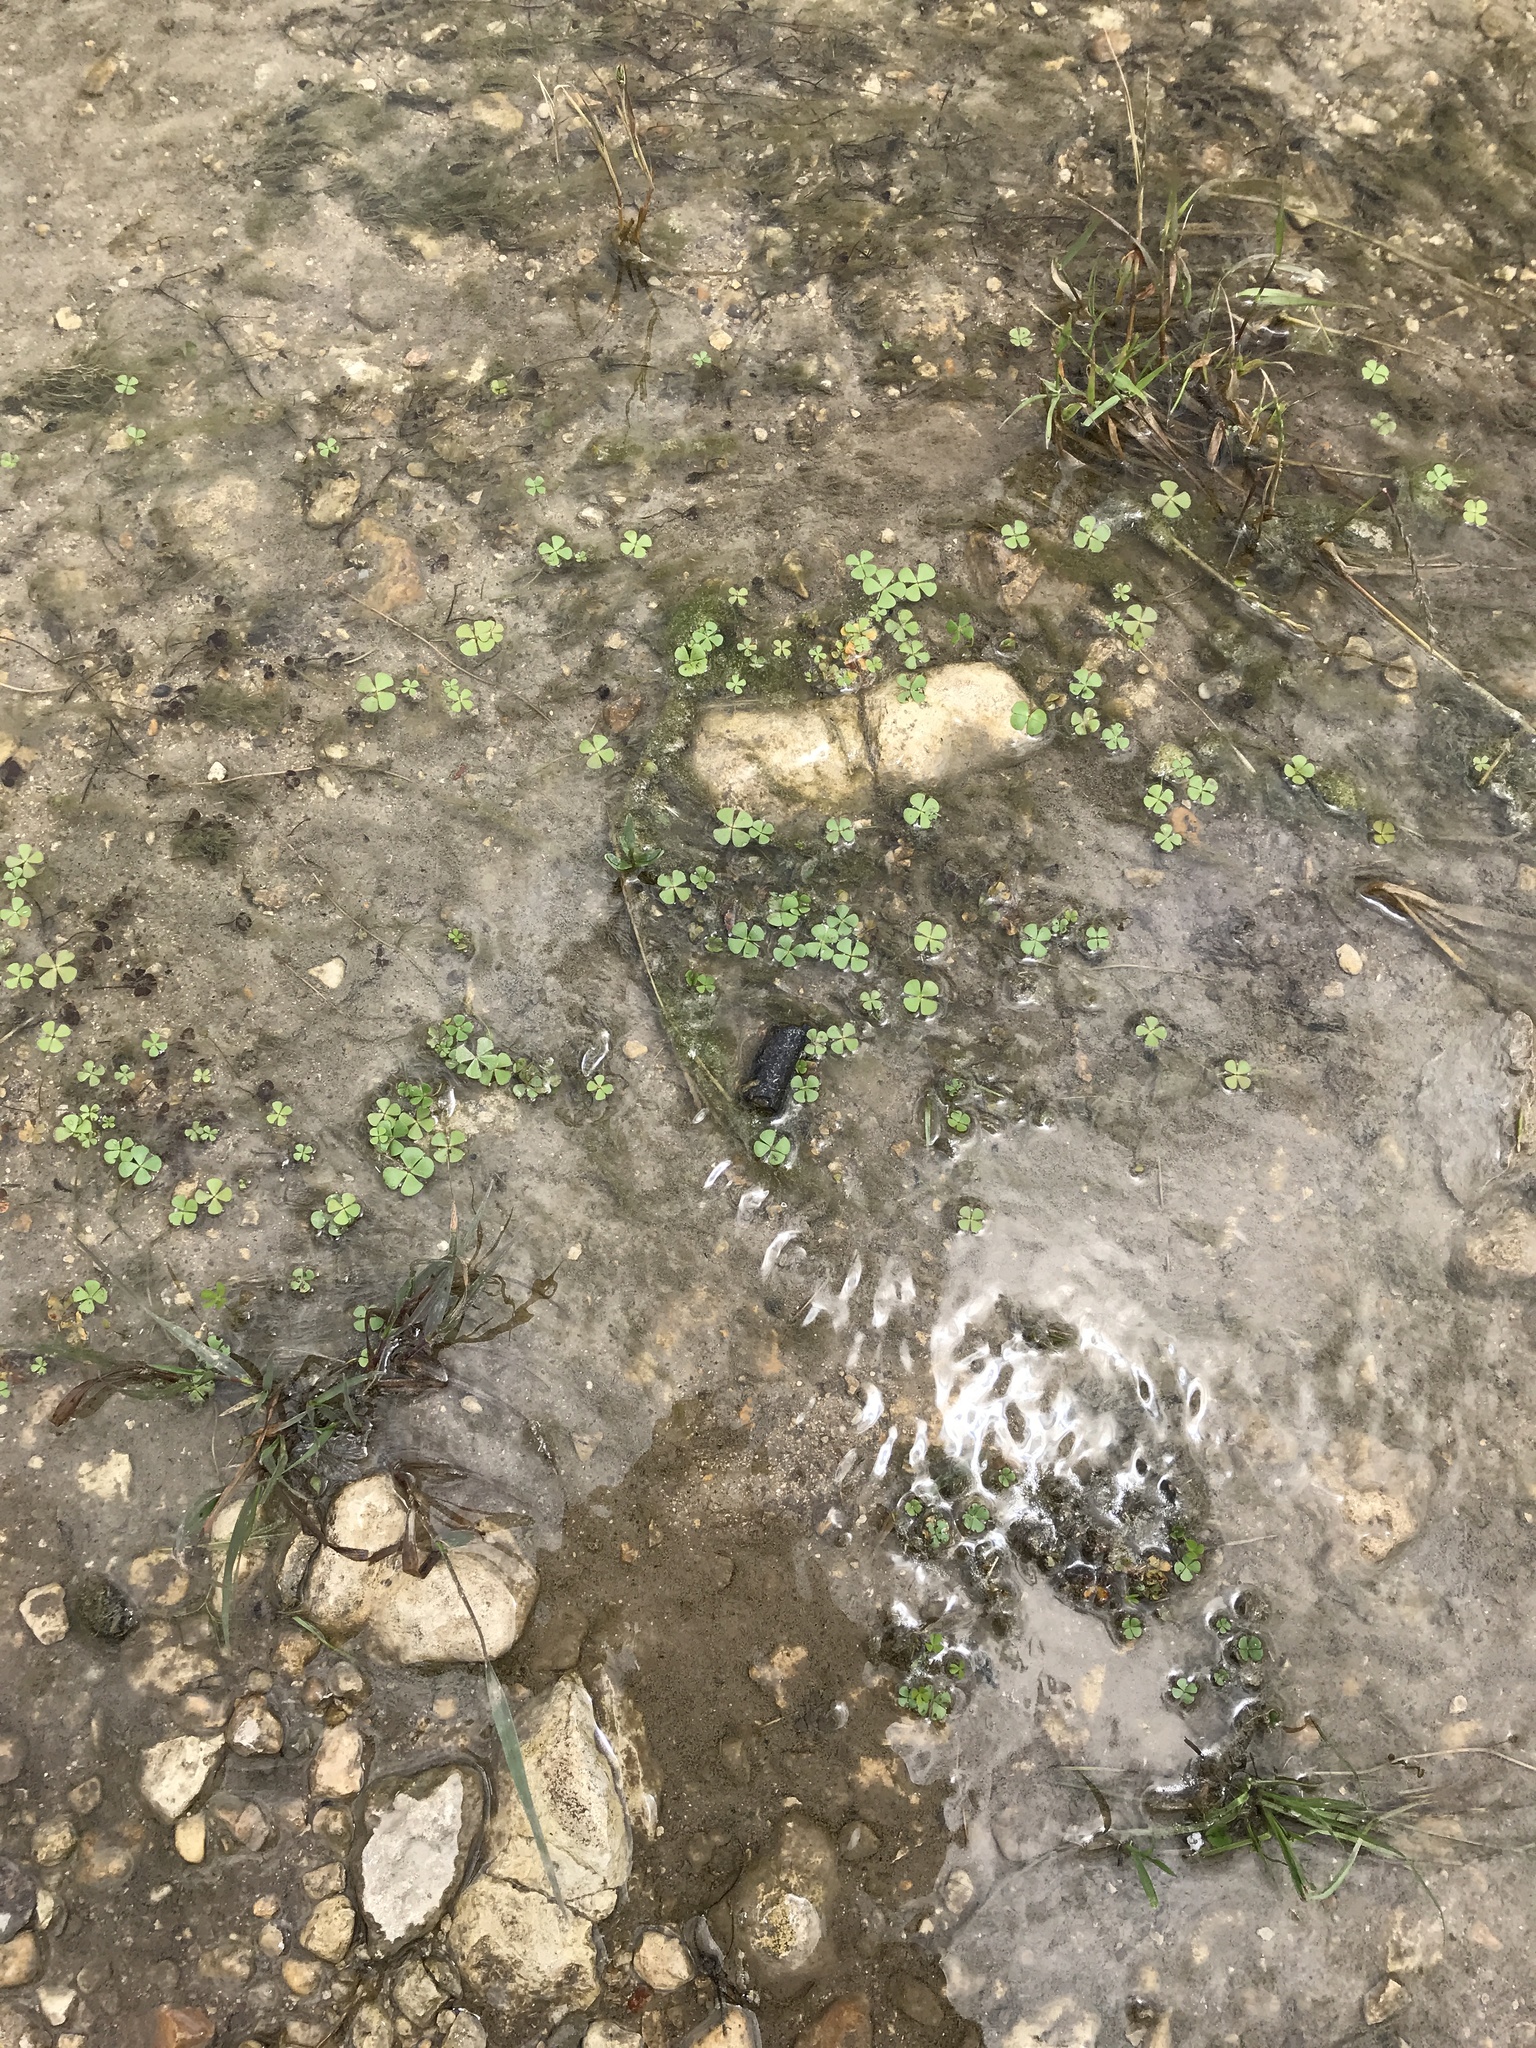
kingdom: Plantae
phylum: Tracheophyta
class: Polypodiopsida
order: Salviniales
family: Marsileaceae
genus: Marsilea
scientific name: Marsilea vestita
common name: Hooked-pepperwort
